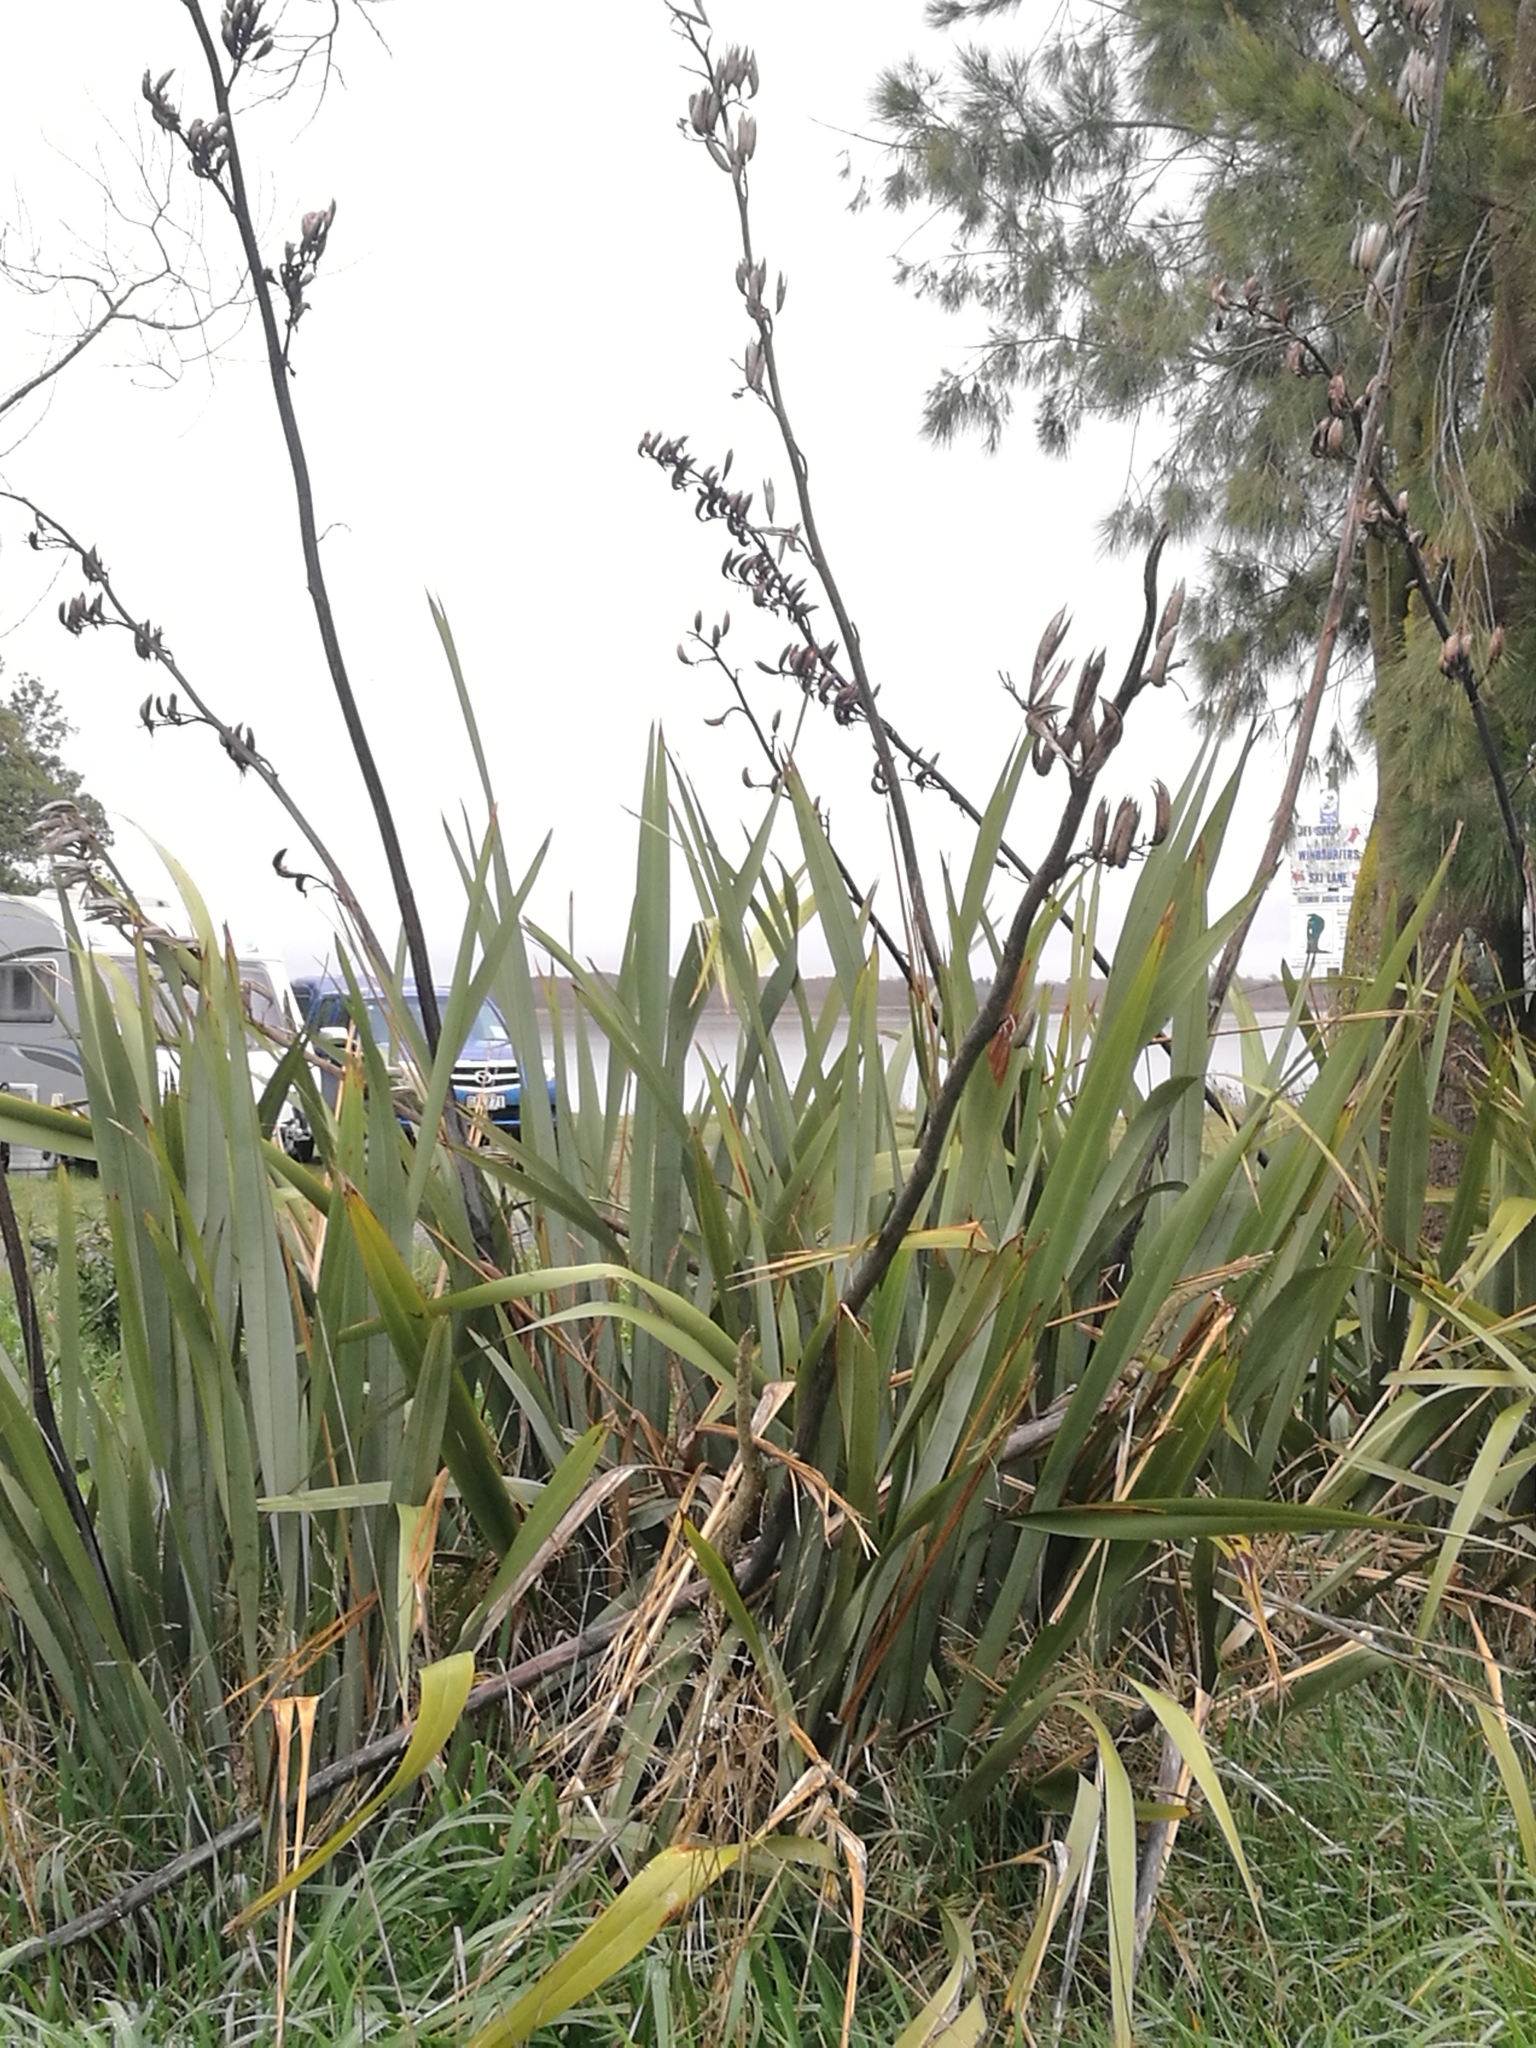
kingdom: Plantae
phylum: Tracheophyta
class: Liliopsida
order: Asparagales
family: Asphodelaceae
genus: Phormium
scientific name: Phormium tenax
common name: New zealand flax
